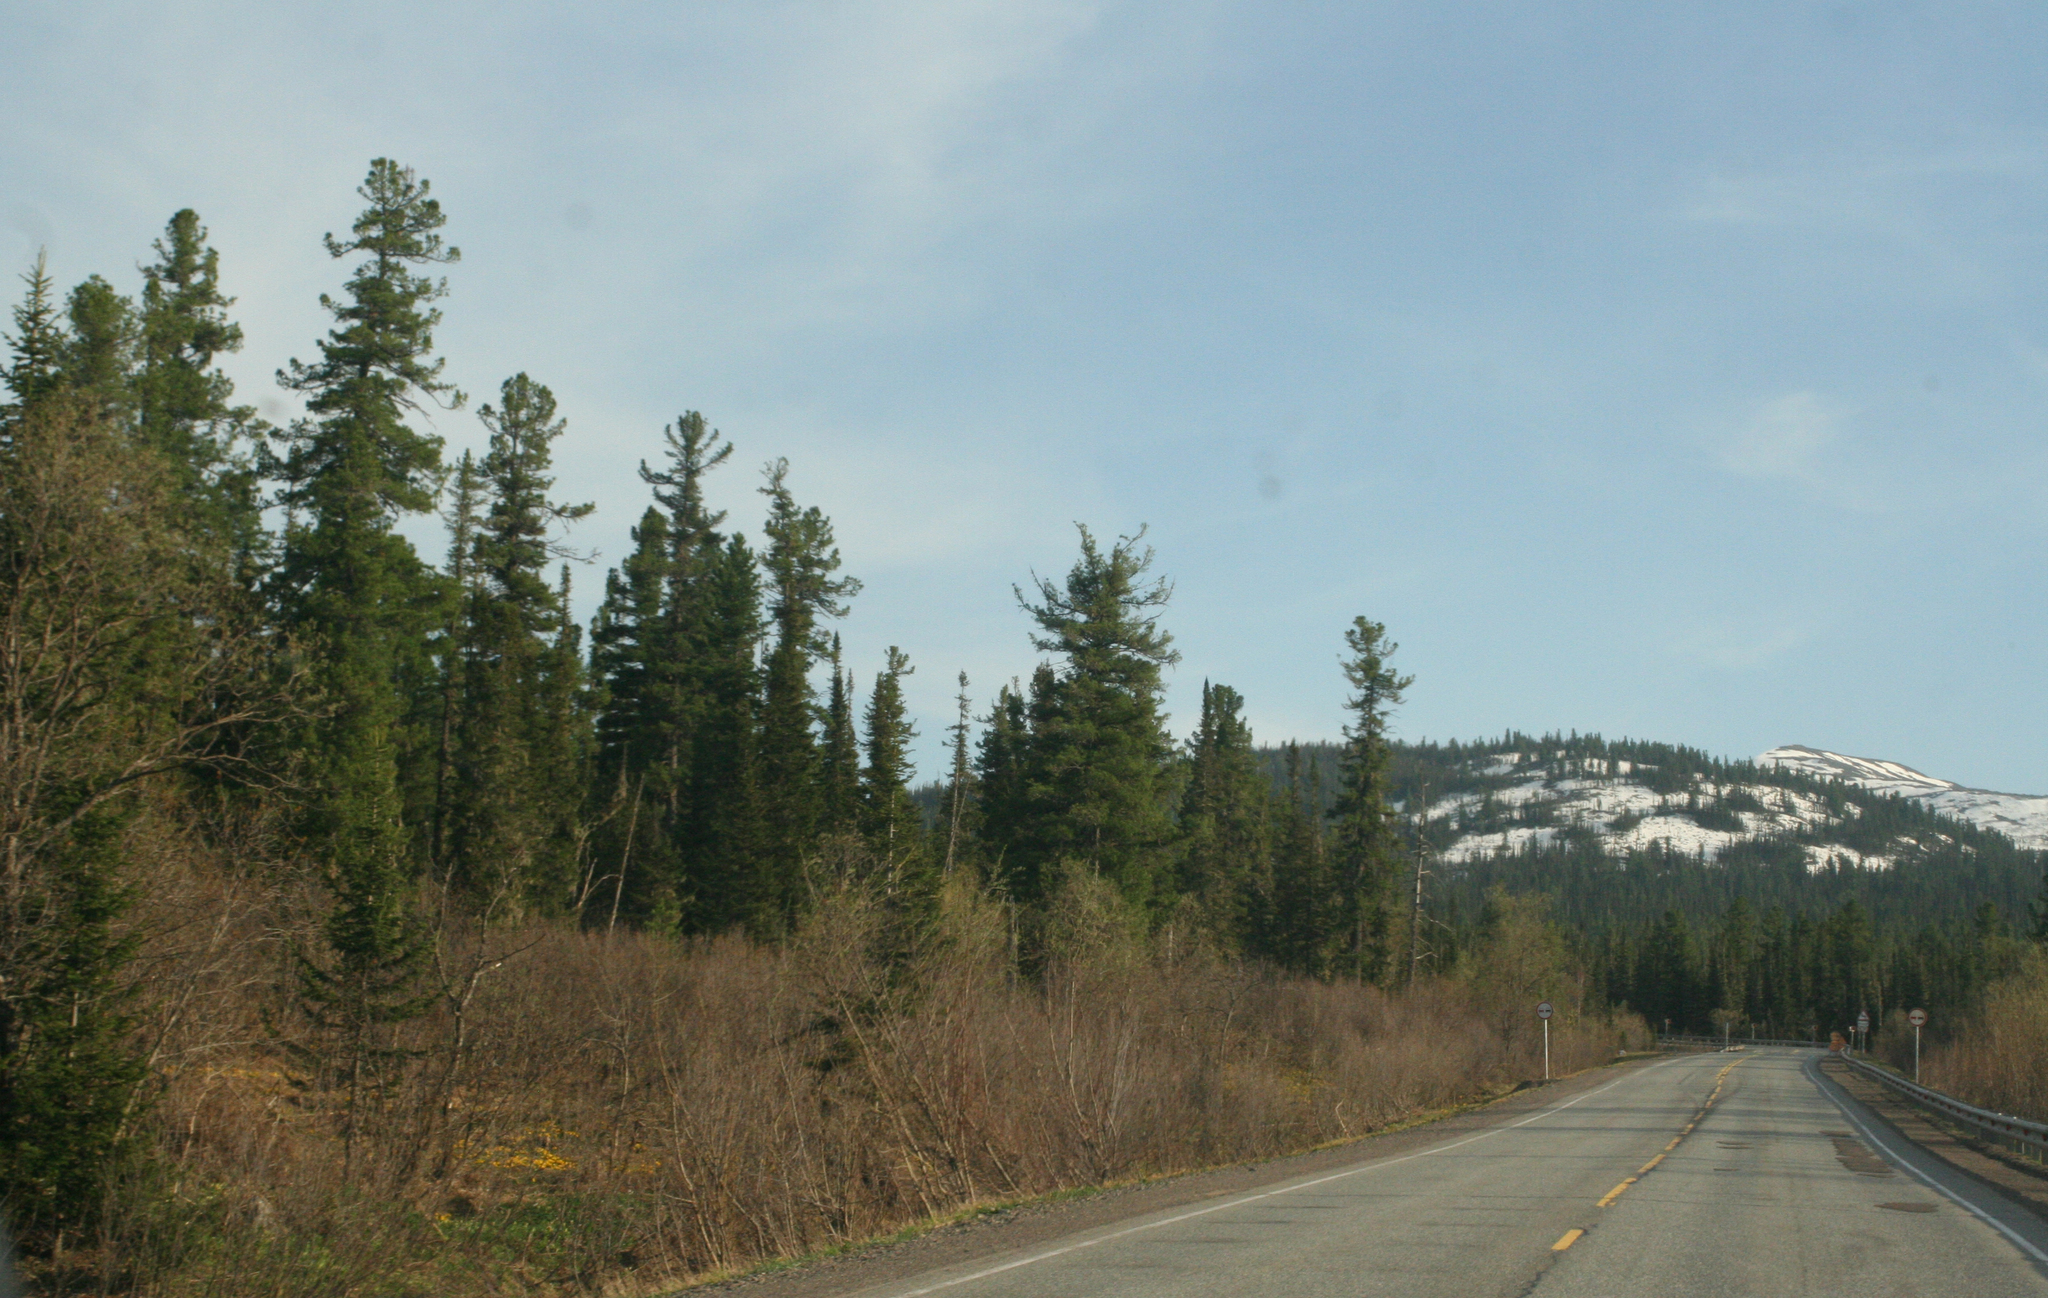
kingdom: Plantae
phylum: Tracheophyta
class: Pinopsida
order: Pinales
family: Pinaceae
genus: Pinus
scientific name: Pinus sibirica
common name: Siberian pine
